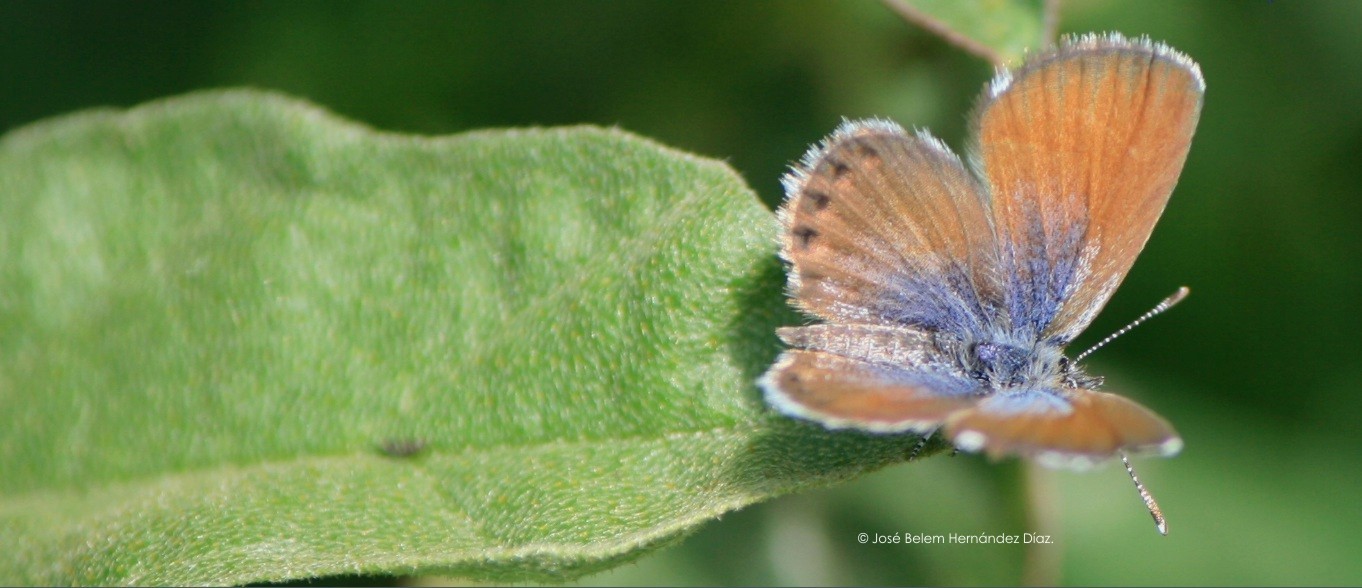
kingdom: Animalia
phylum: Arthropoda
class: Insecta
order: Lepidoptera
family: Lycaenidae
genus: Brephidium
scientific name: Brephidium exilis
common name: Pygmy blue
